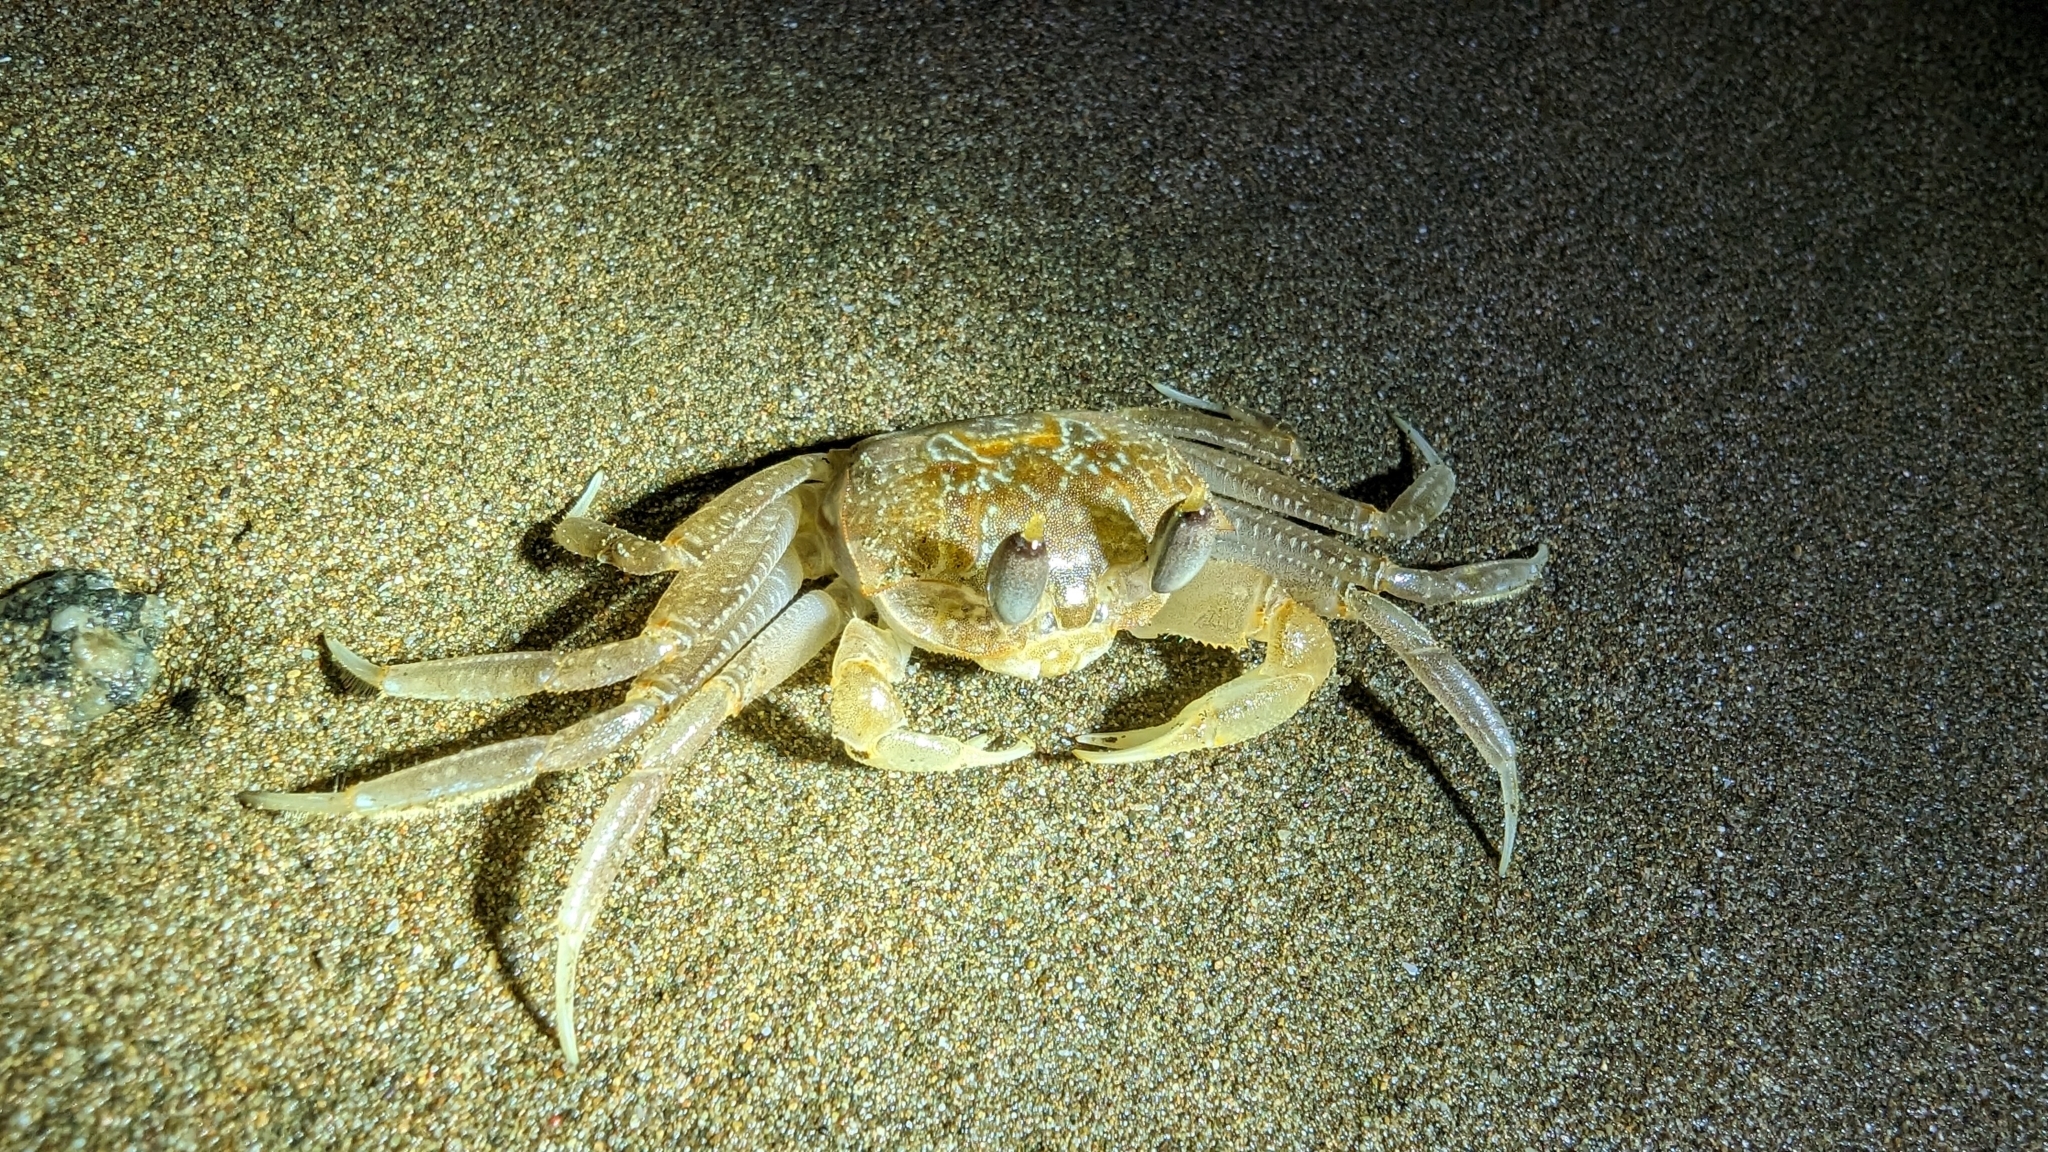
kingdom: Animalia
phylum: Arthropoda
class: Malacostraca
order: Decapoda
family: Ocypodidae
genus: Ocypode
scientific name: Ocypode occidentalis
